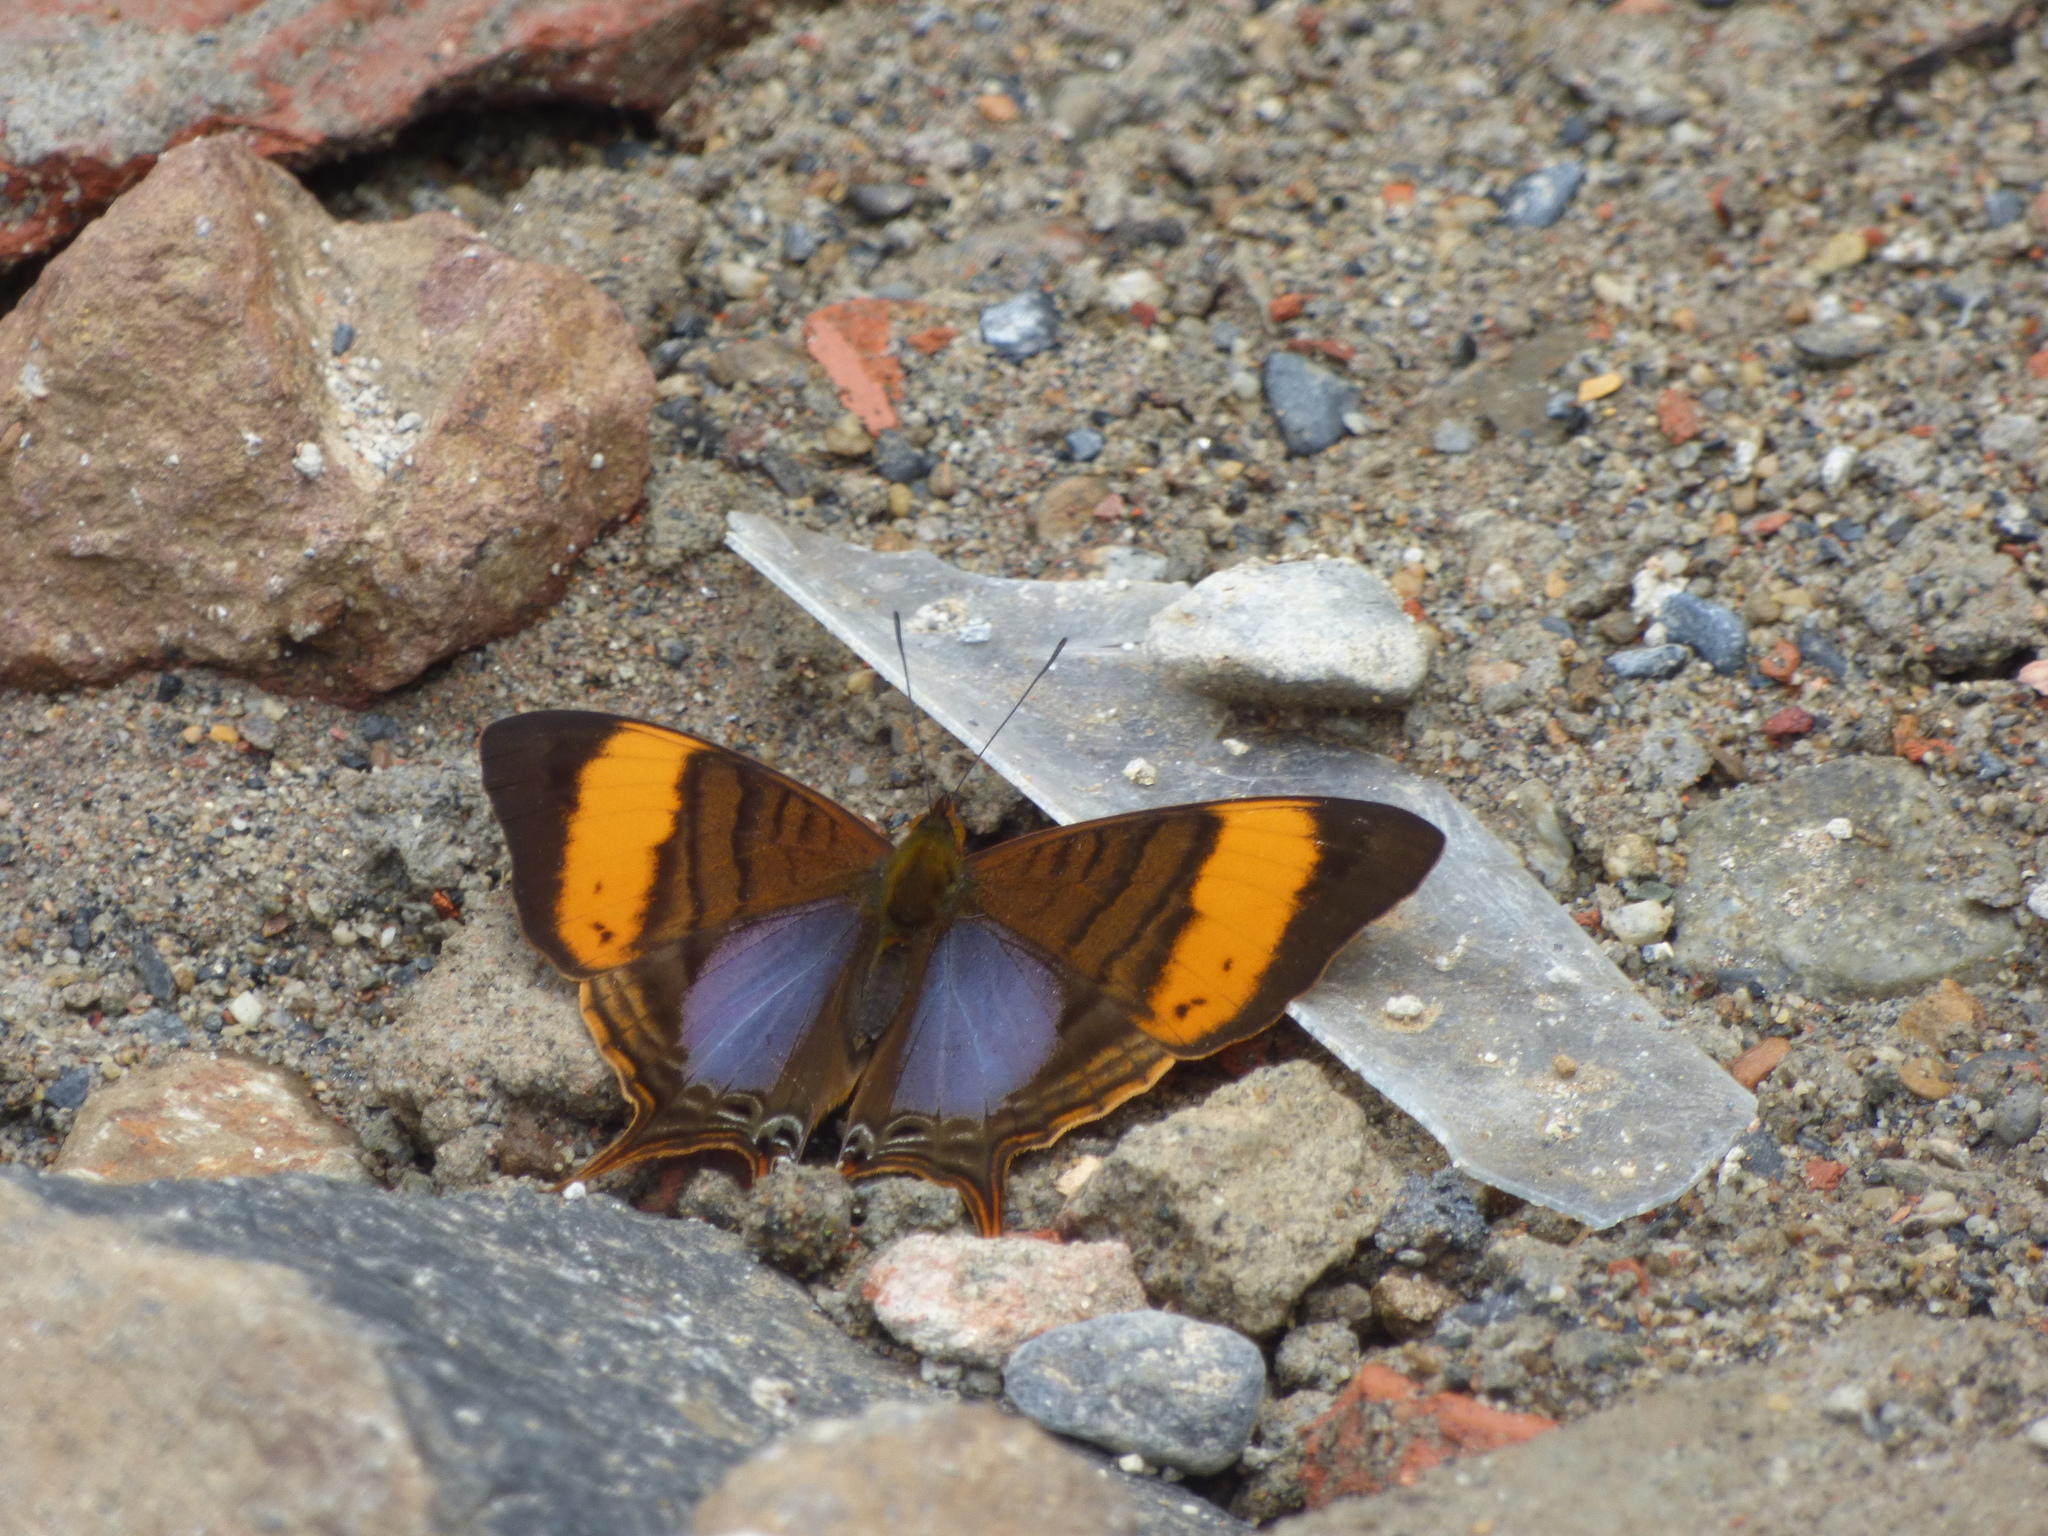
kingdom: Animalia
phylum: Arthropoda
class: Insecta
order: Lepidoptera
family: Nymphalidae
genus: Marpesia
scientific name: Marpesia corinna
